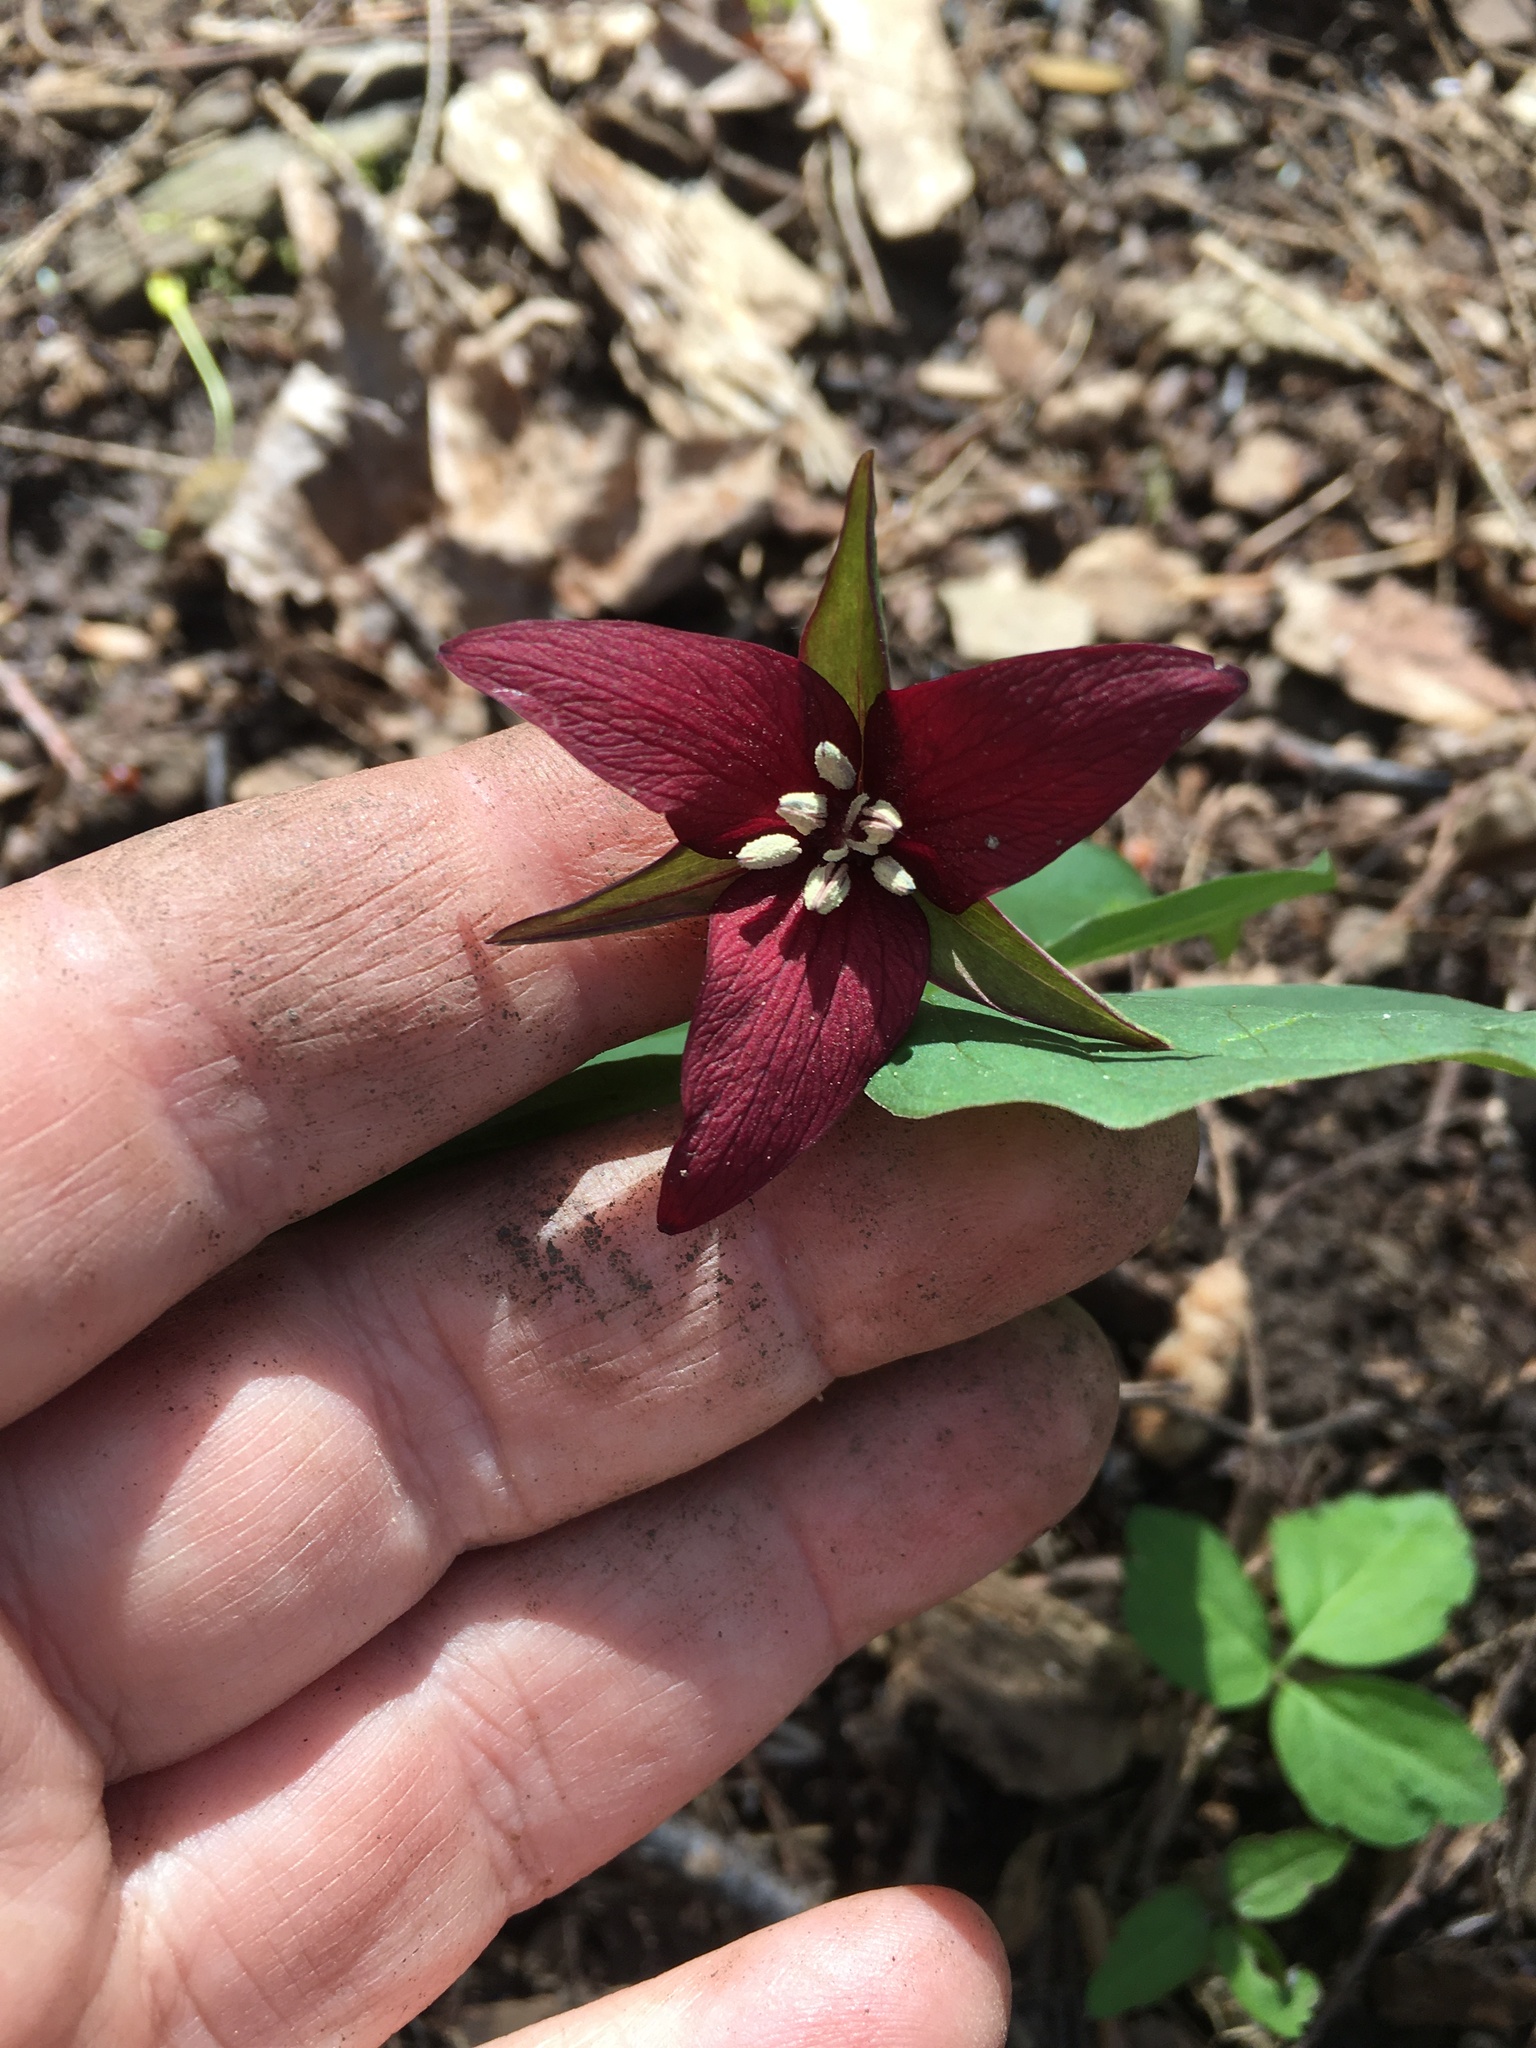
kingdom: Plantae
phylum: Tracheophyta
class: Liliopsida
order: Liliales
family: Melanthiaceae
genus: Trillium
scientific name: Trillium erectum
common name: Purple trillium
